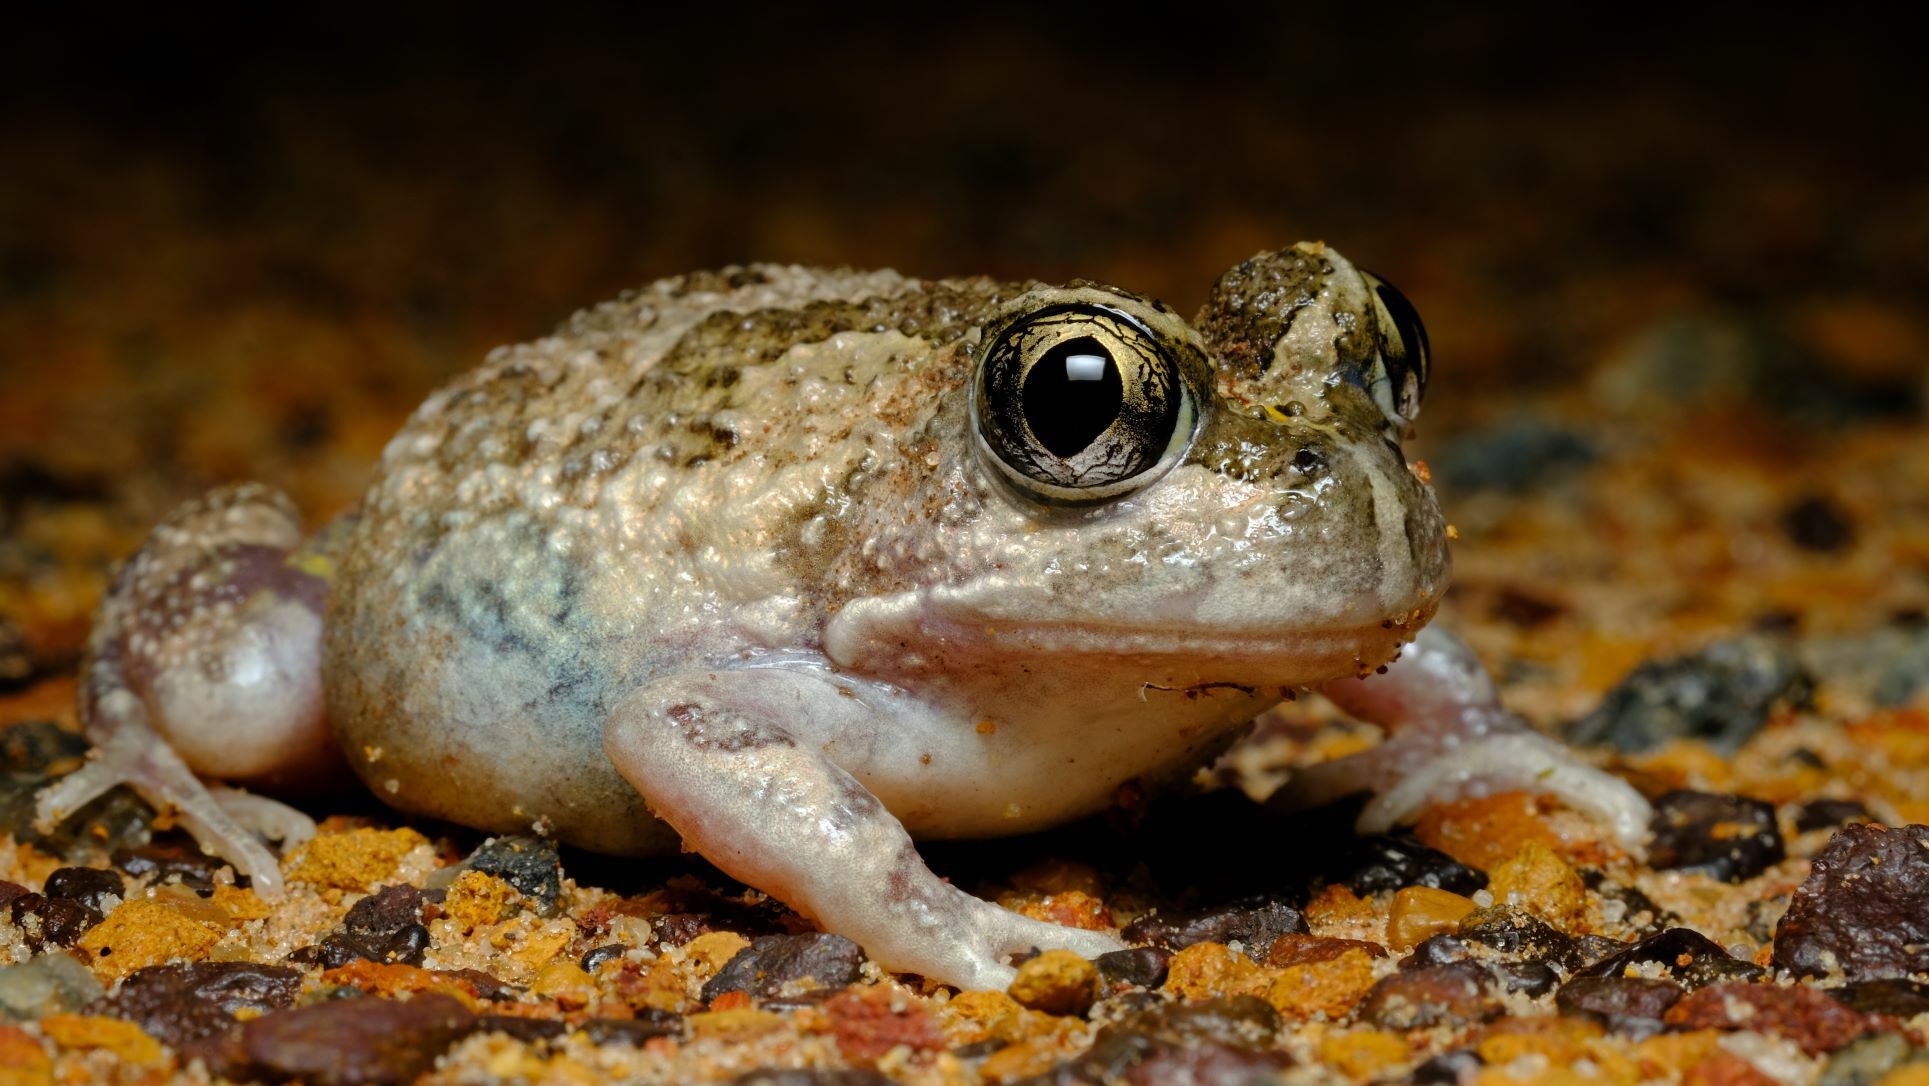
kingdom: Animalia
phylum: Chordata
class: Amphibia
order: Anura
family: Limnodynastidae
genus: Neobatrachus
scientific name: Neobatrachus pelobatoides
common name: Humming frog
